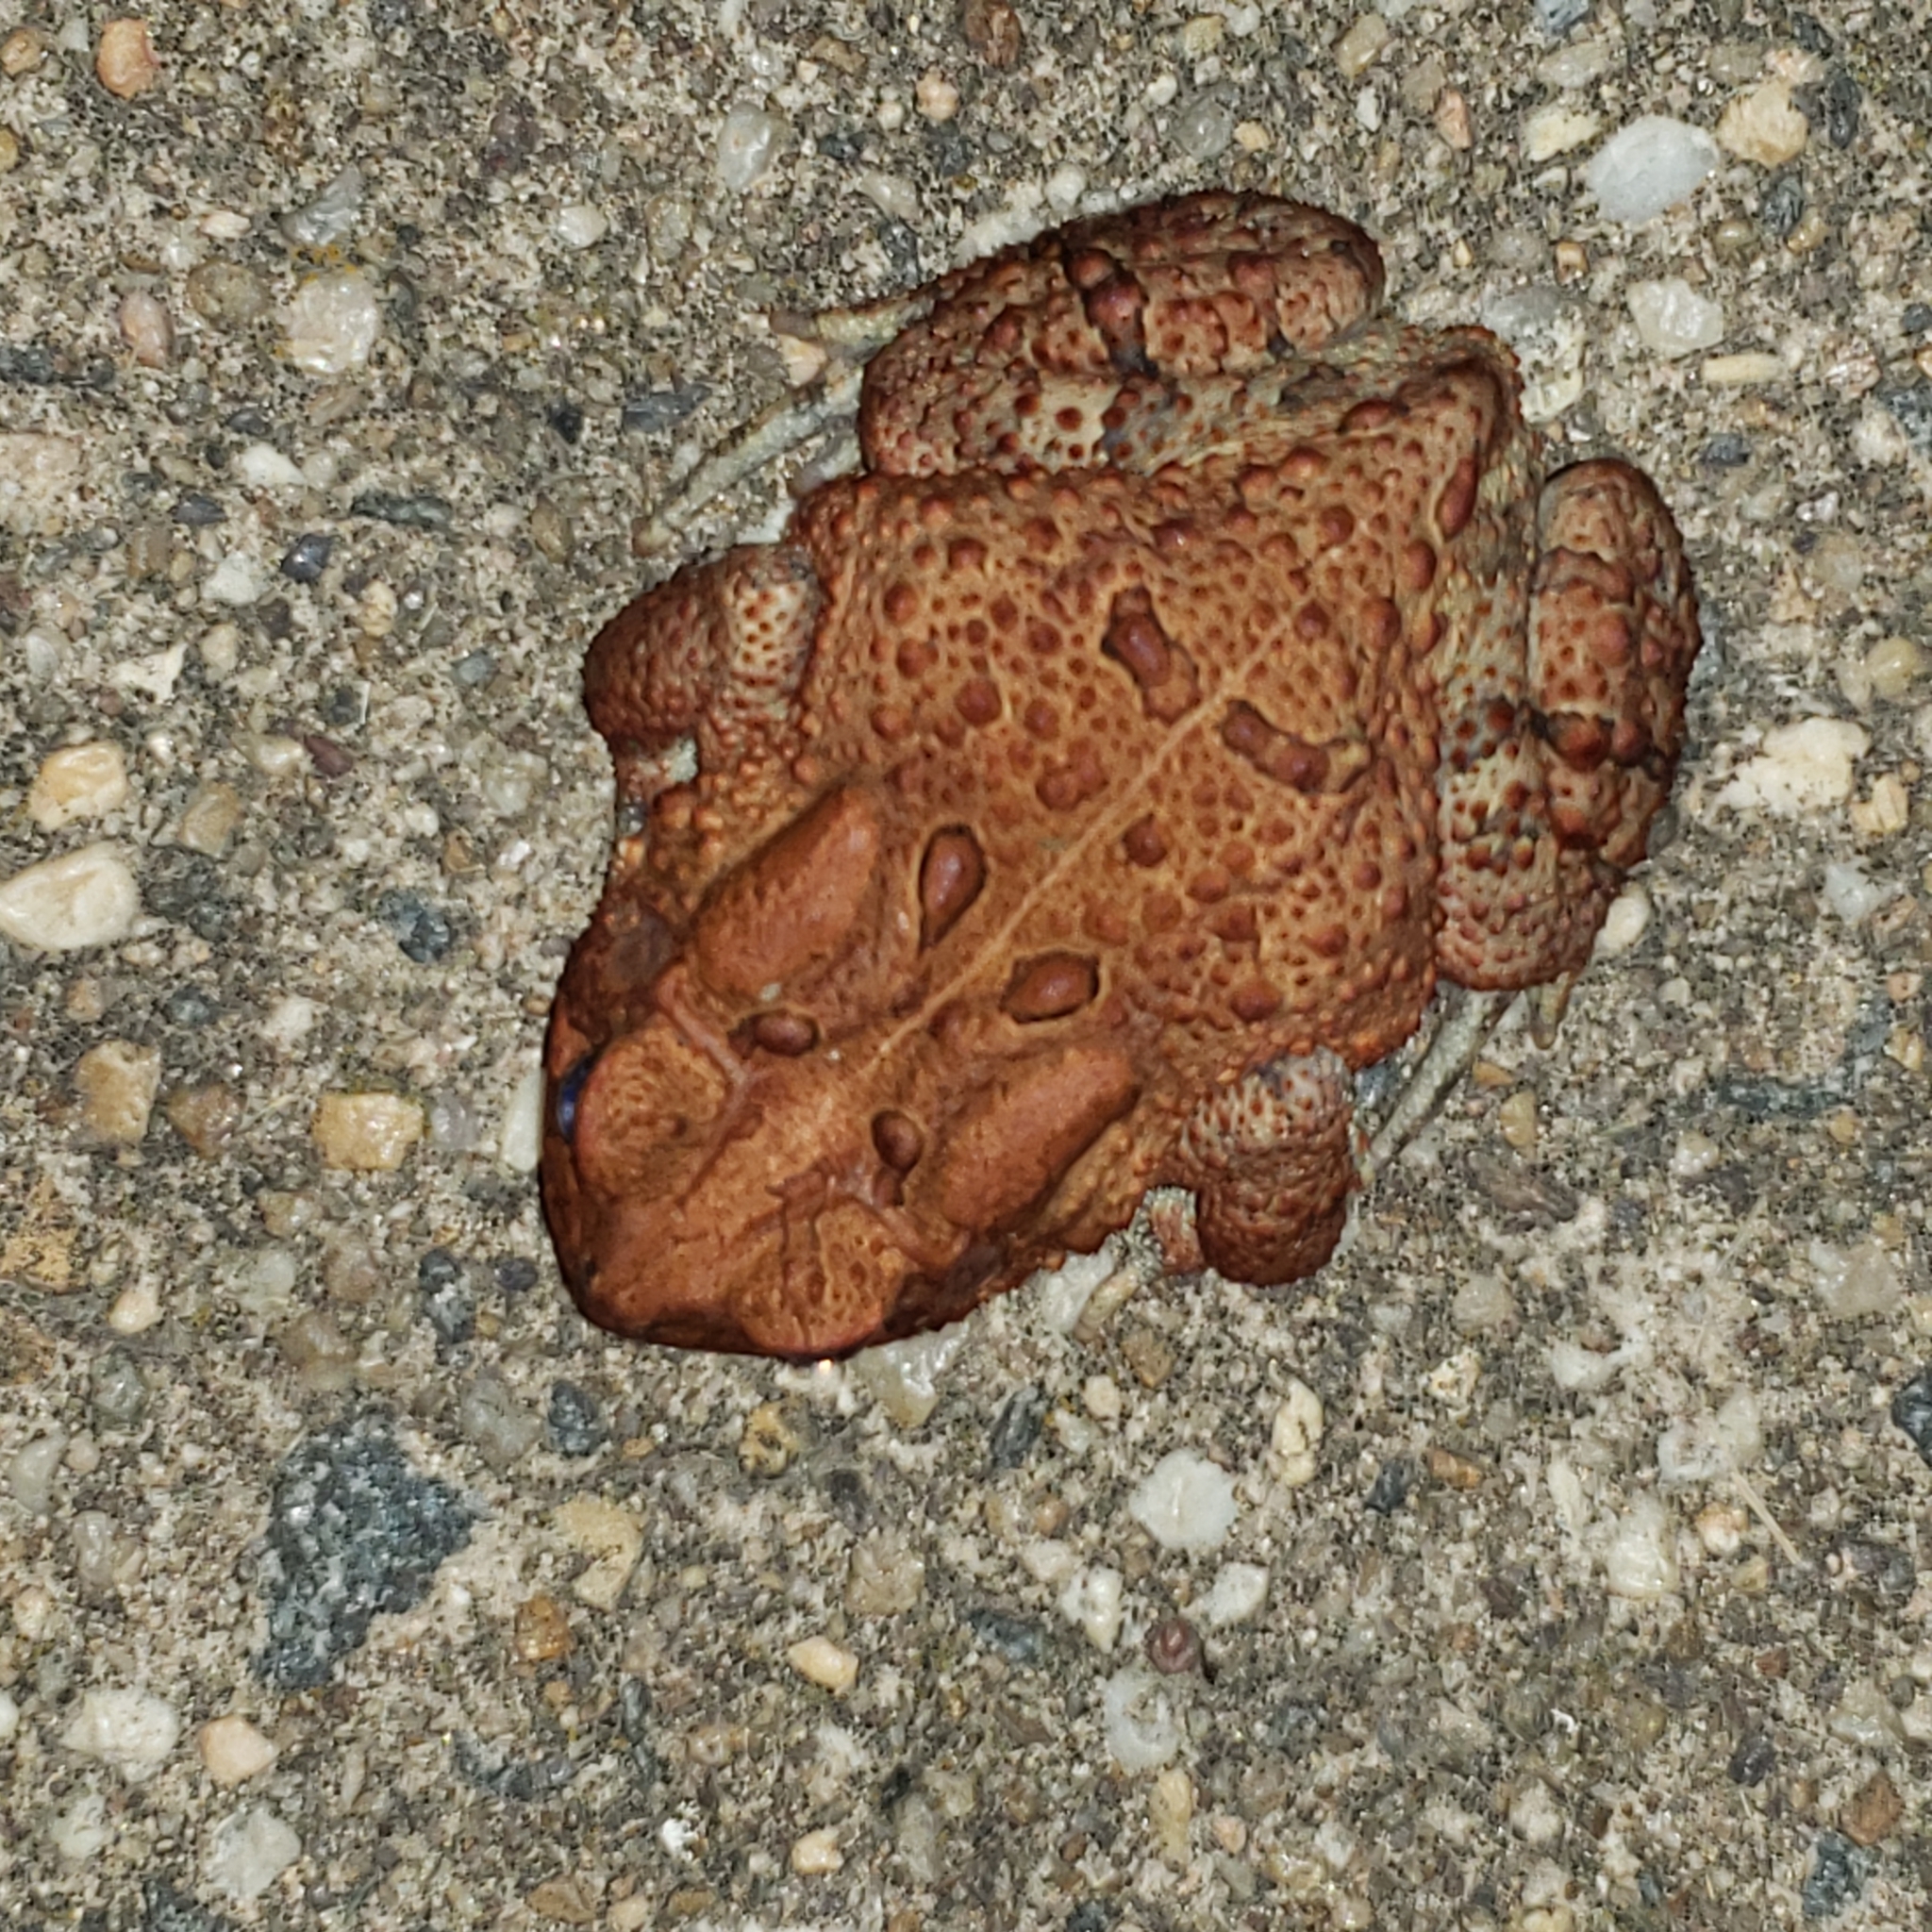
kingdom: Animalia
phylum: Chordata
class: Amphibia
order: Anura
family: Bufonidae
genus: Anaxyrus
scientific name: Anaxyrus americanus
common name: American toad
